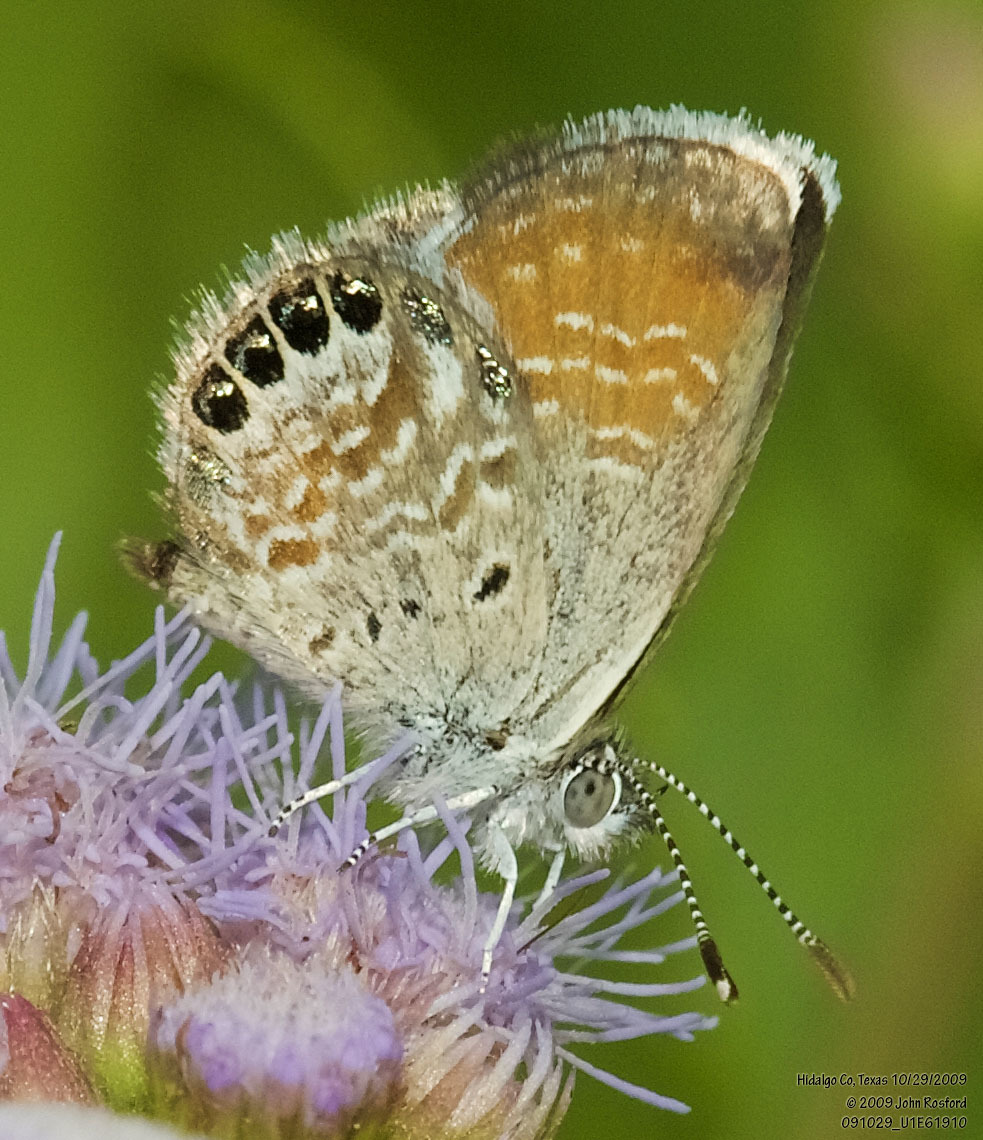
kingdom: Animalia
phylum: Arthropoda
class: Insecta
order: Lepidoptera
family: Lycaenidae
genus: Brephidium
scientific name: Brephidium exilis
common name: Pygmy blue
